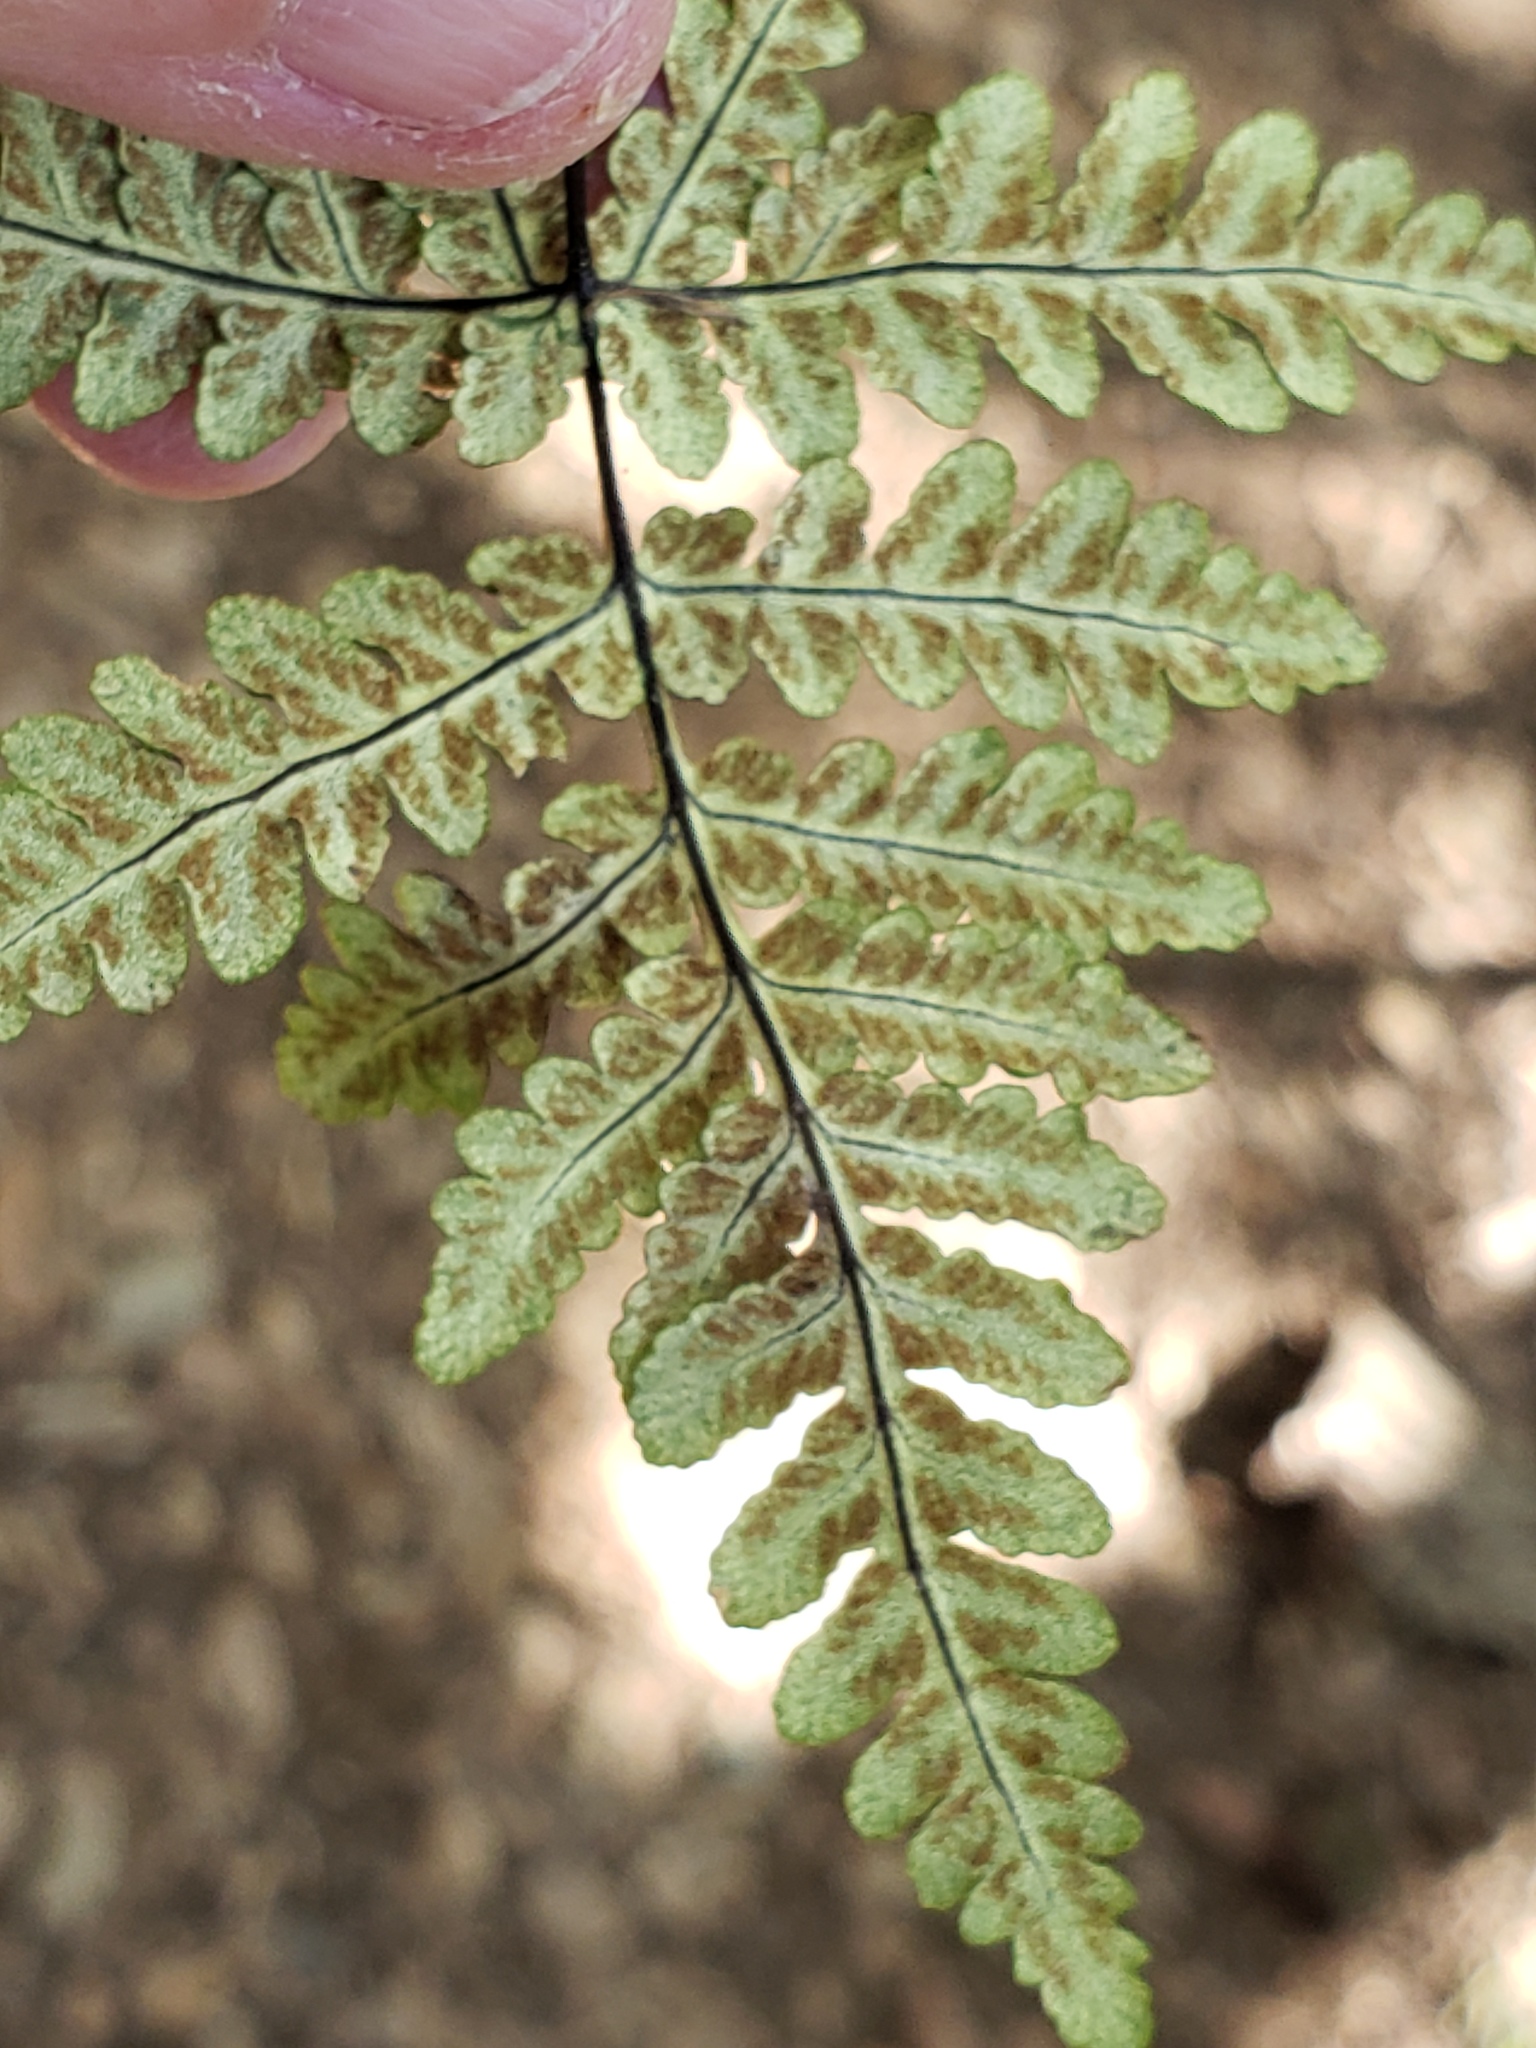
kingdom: Plantae
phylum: Tracheophyta
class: Polypodiopsida
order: Polypodiales
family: Pteridaceae
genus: Pentagramma
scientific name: Pentagramma triangularis
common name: Gold fern
